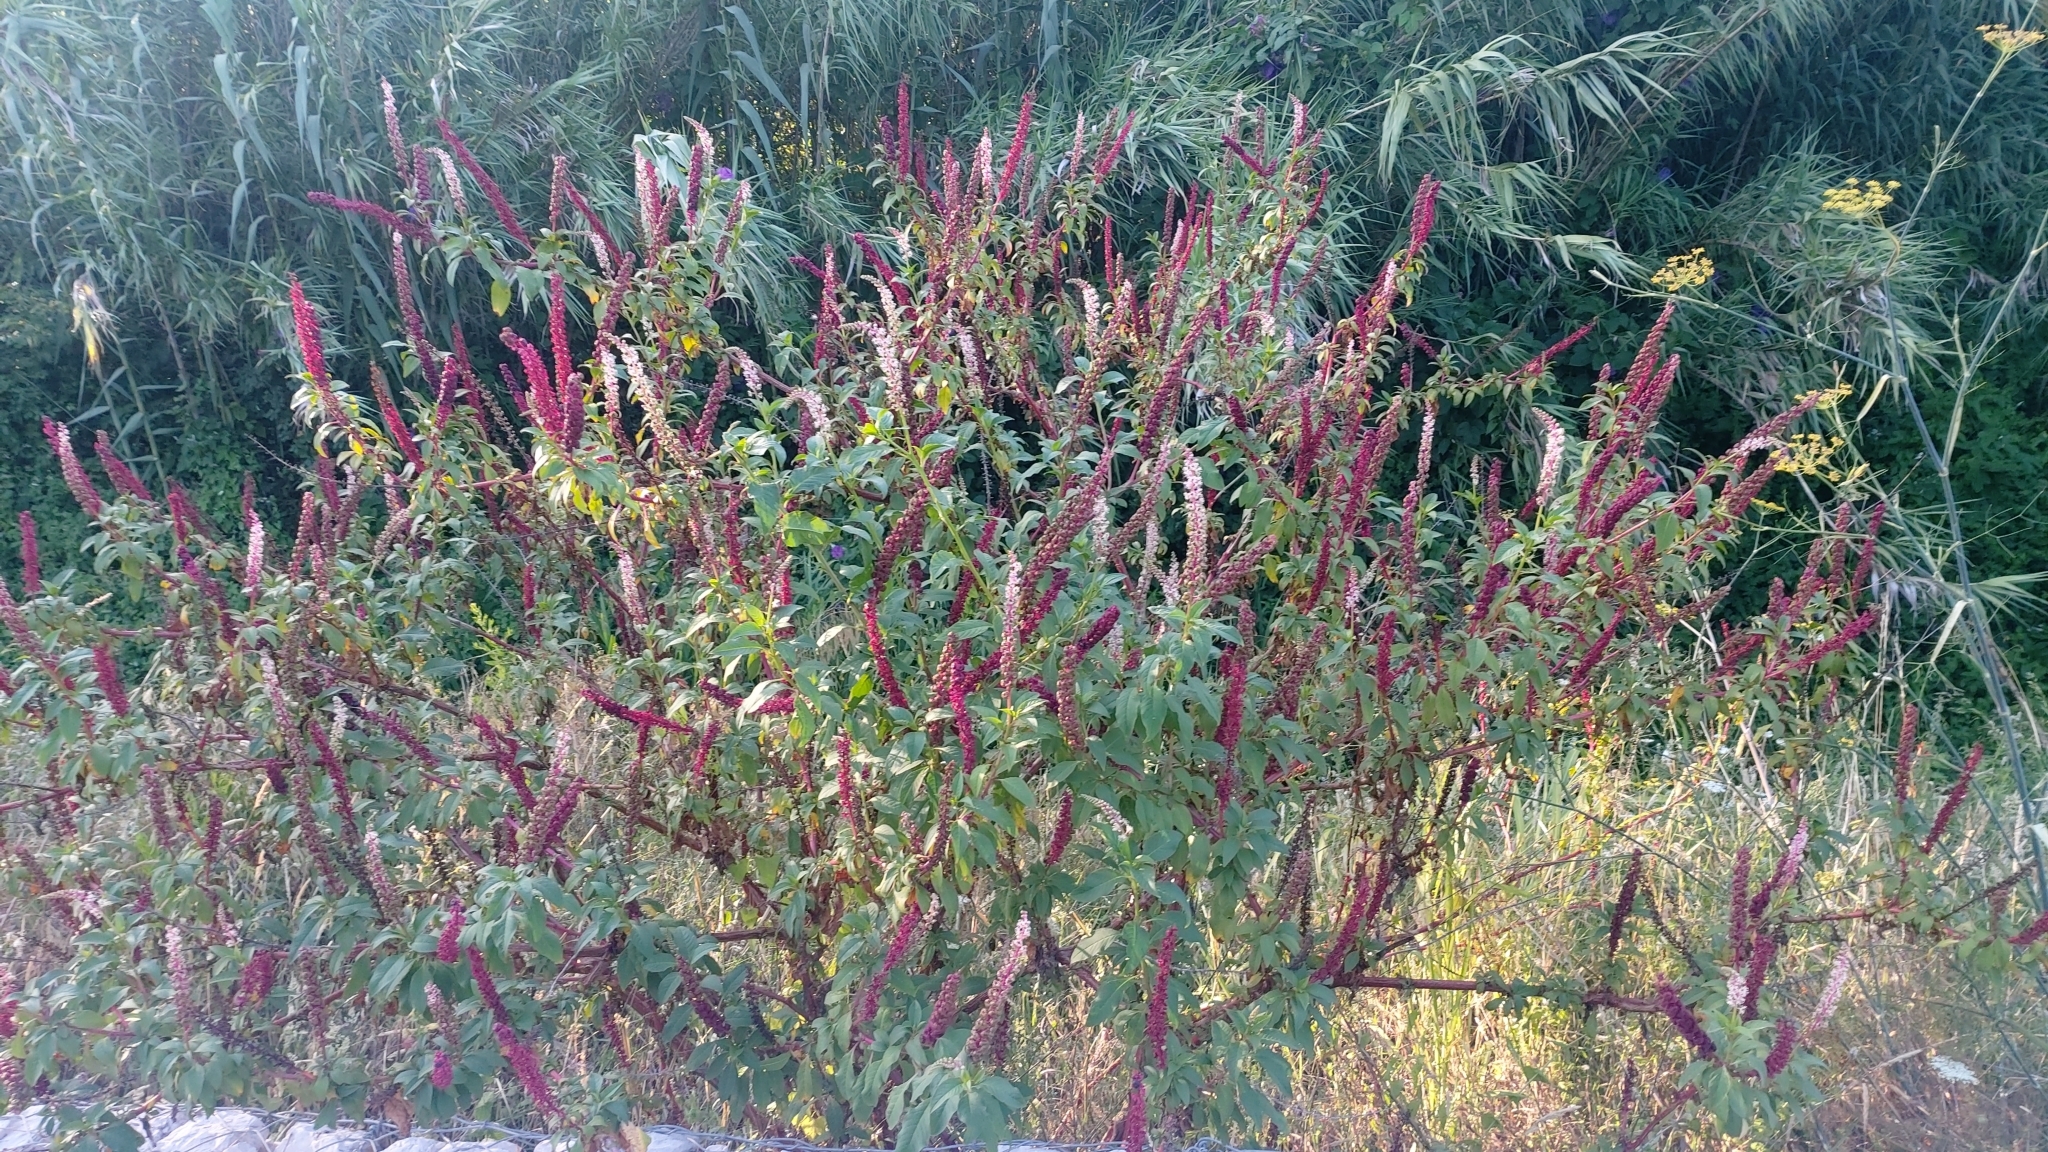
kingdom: Plantae
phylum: Tracheophyta
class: Magnoliopsida
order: Caryophyllales
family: Phytolaccaceae
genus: Phytolacca
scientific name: Phytolacca heterotepala
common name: Mexican pokeweed
